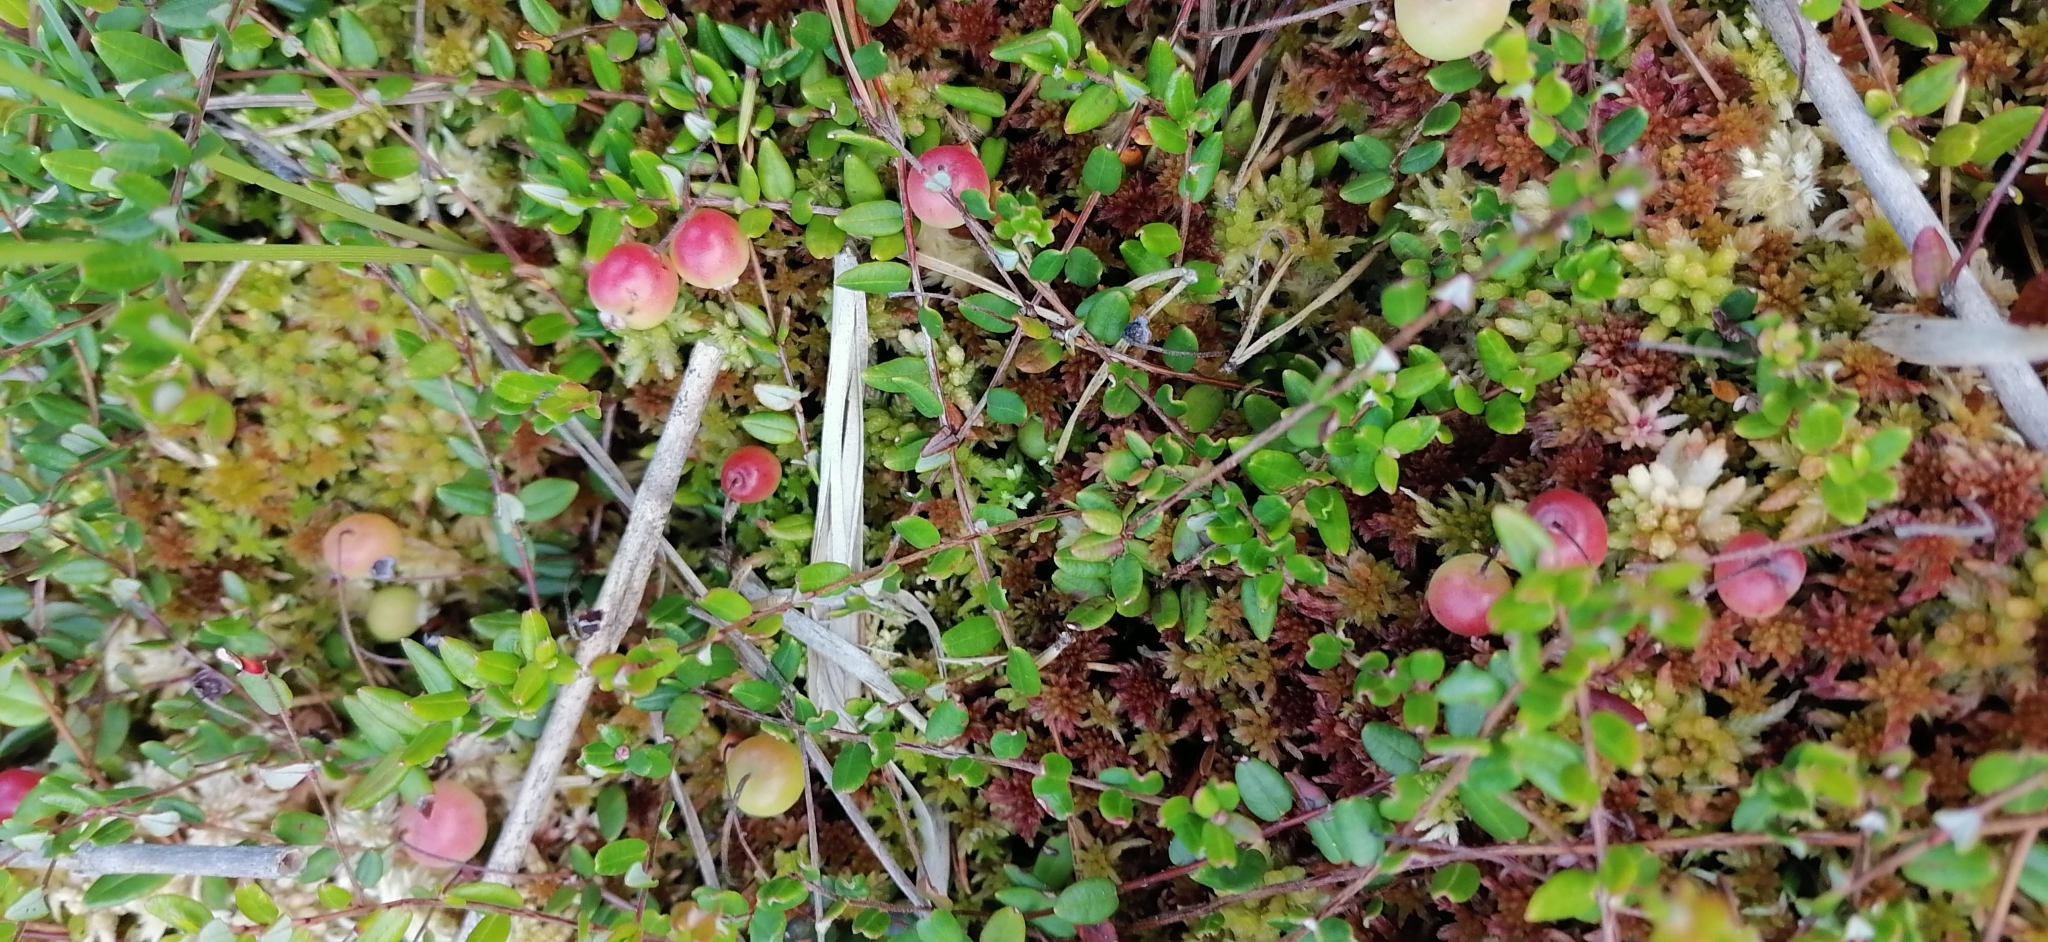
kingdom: Plantae
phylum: Tracheophyta
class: Magnoliopsida
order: Ericales
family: Ericaceae
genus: Vaccinium
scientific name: Vaccinium oxycoccos
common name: Cranberry
